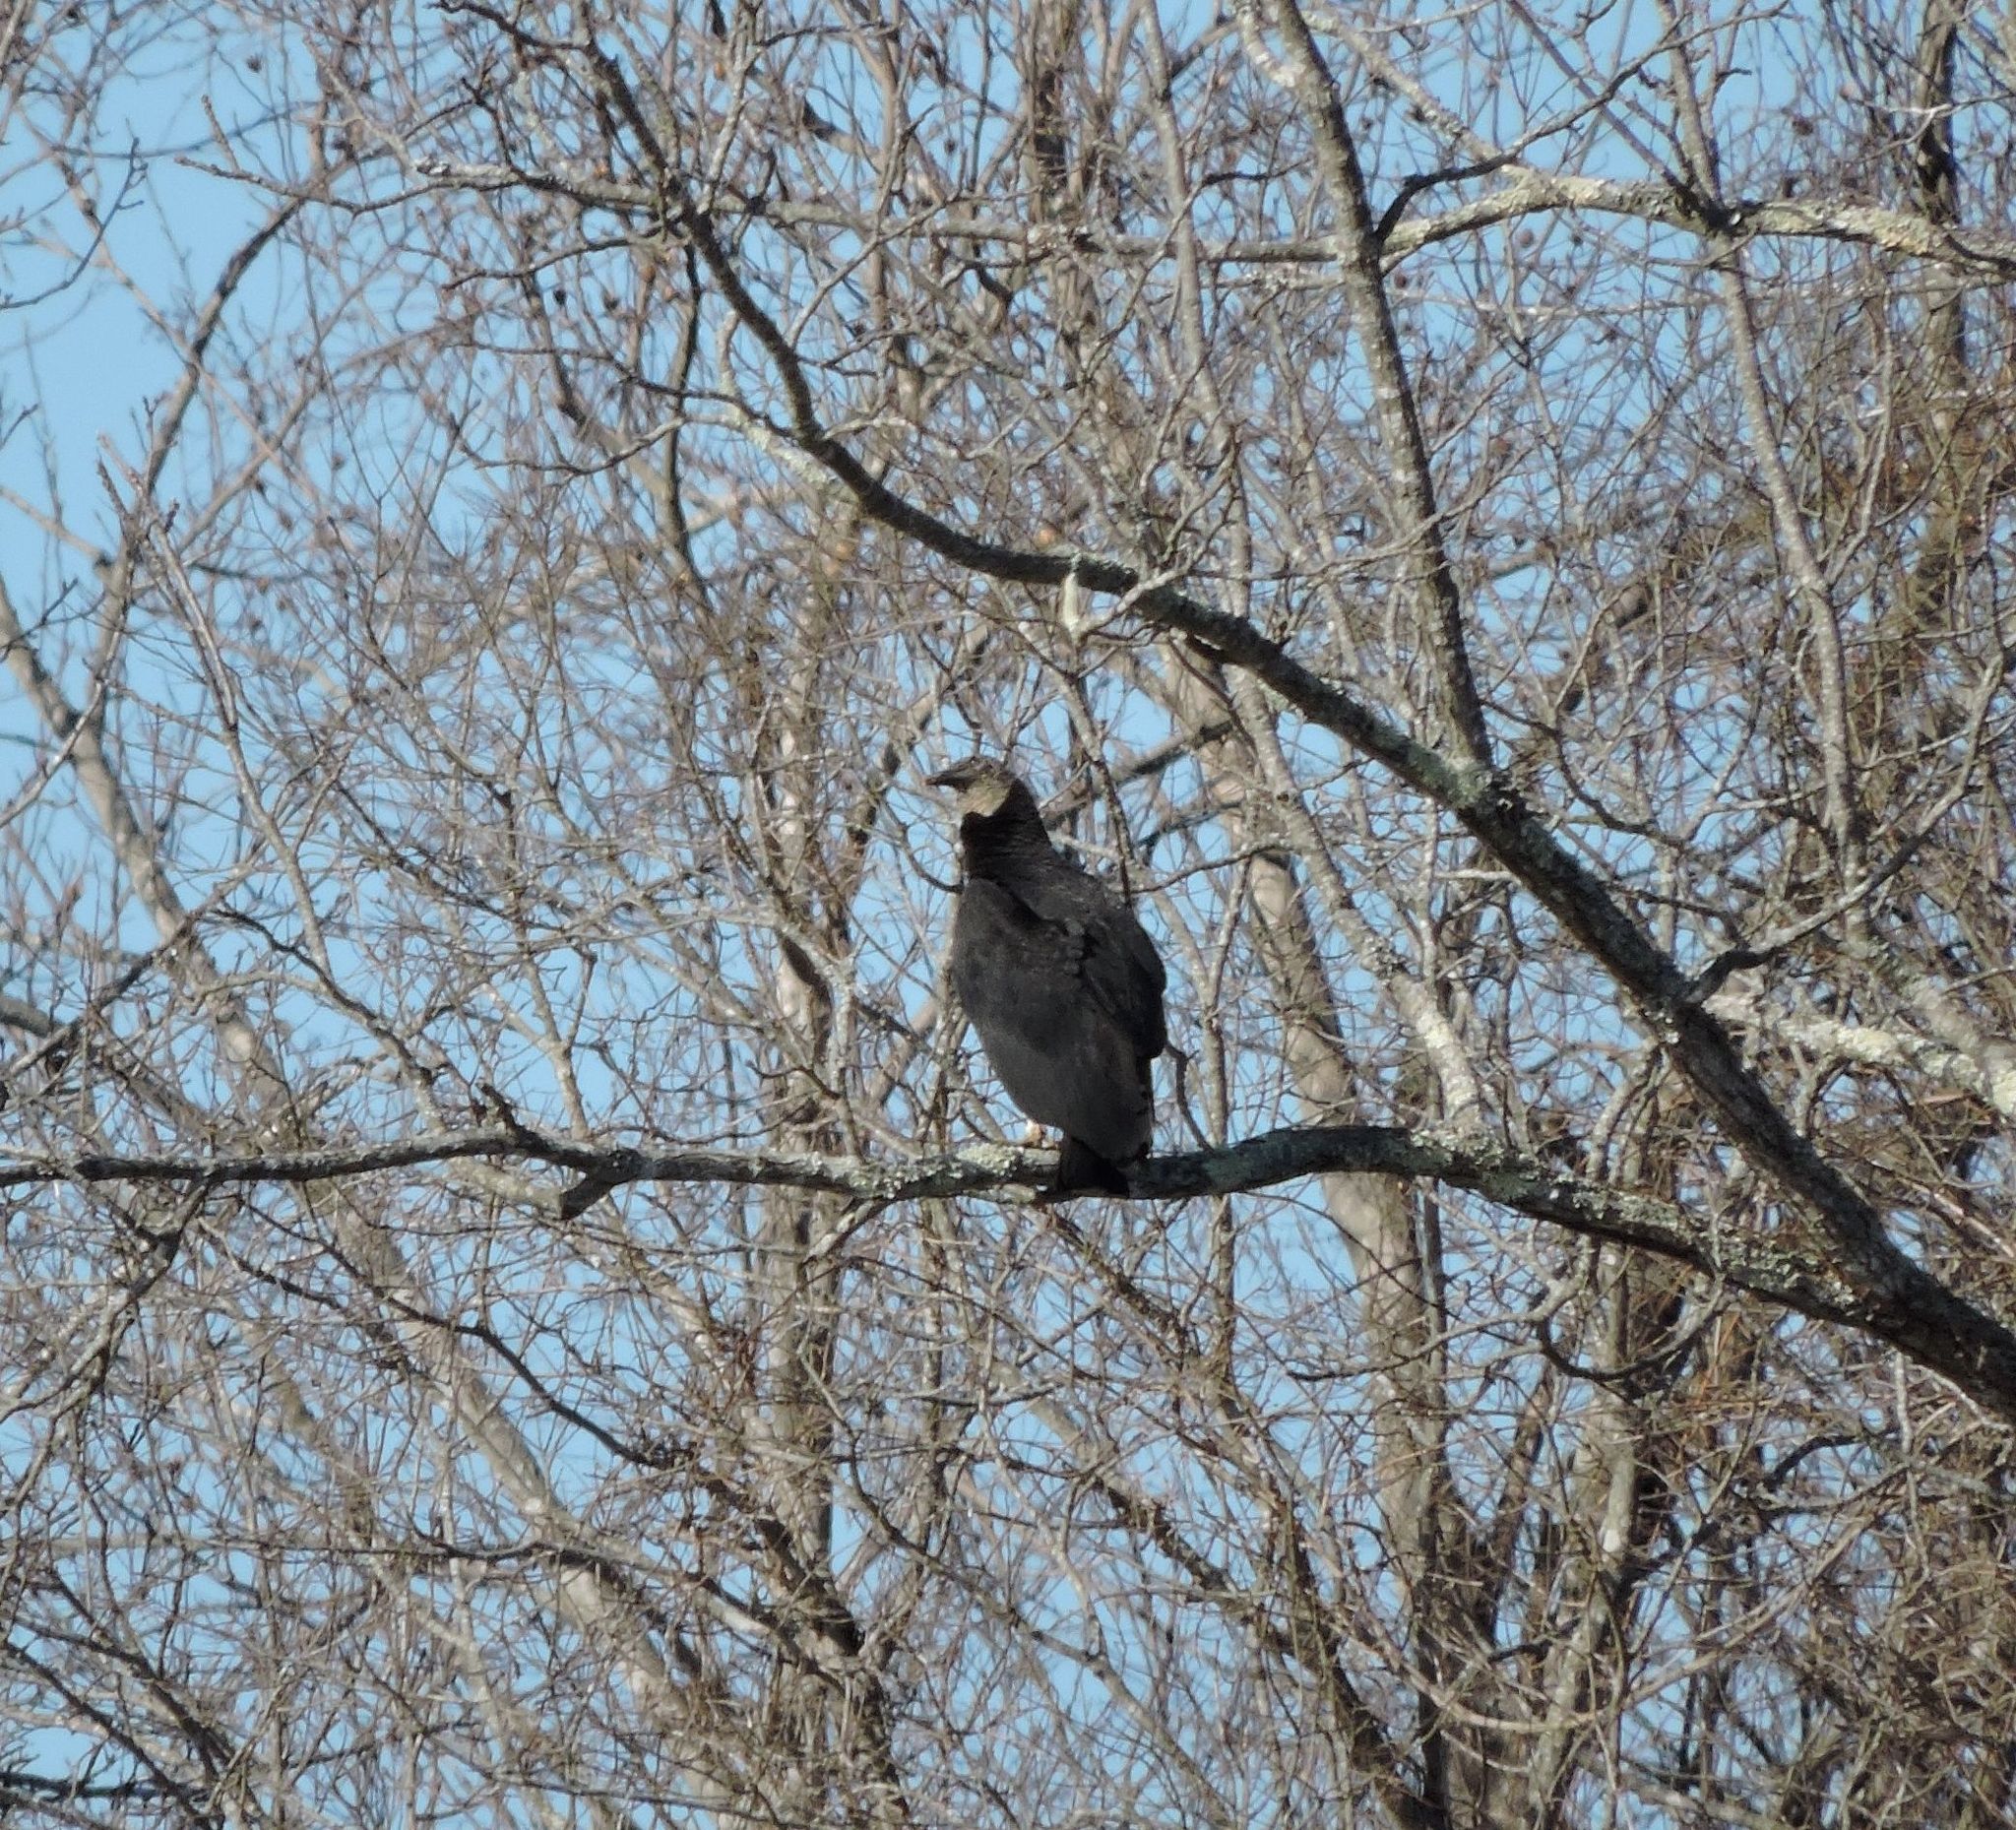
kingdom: Animalia
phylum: Chordata
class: Aves
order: Accipitriformes
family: Cathartidae
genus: Coragyps
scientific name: Coragyps atratus
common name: Black vulture
